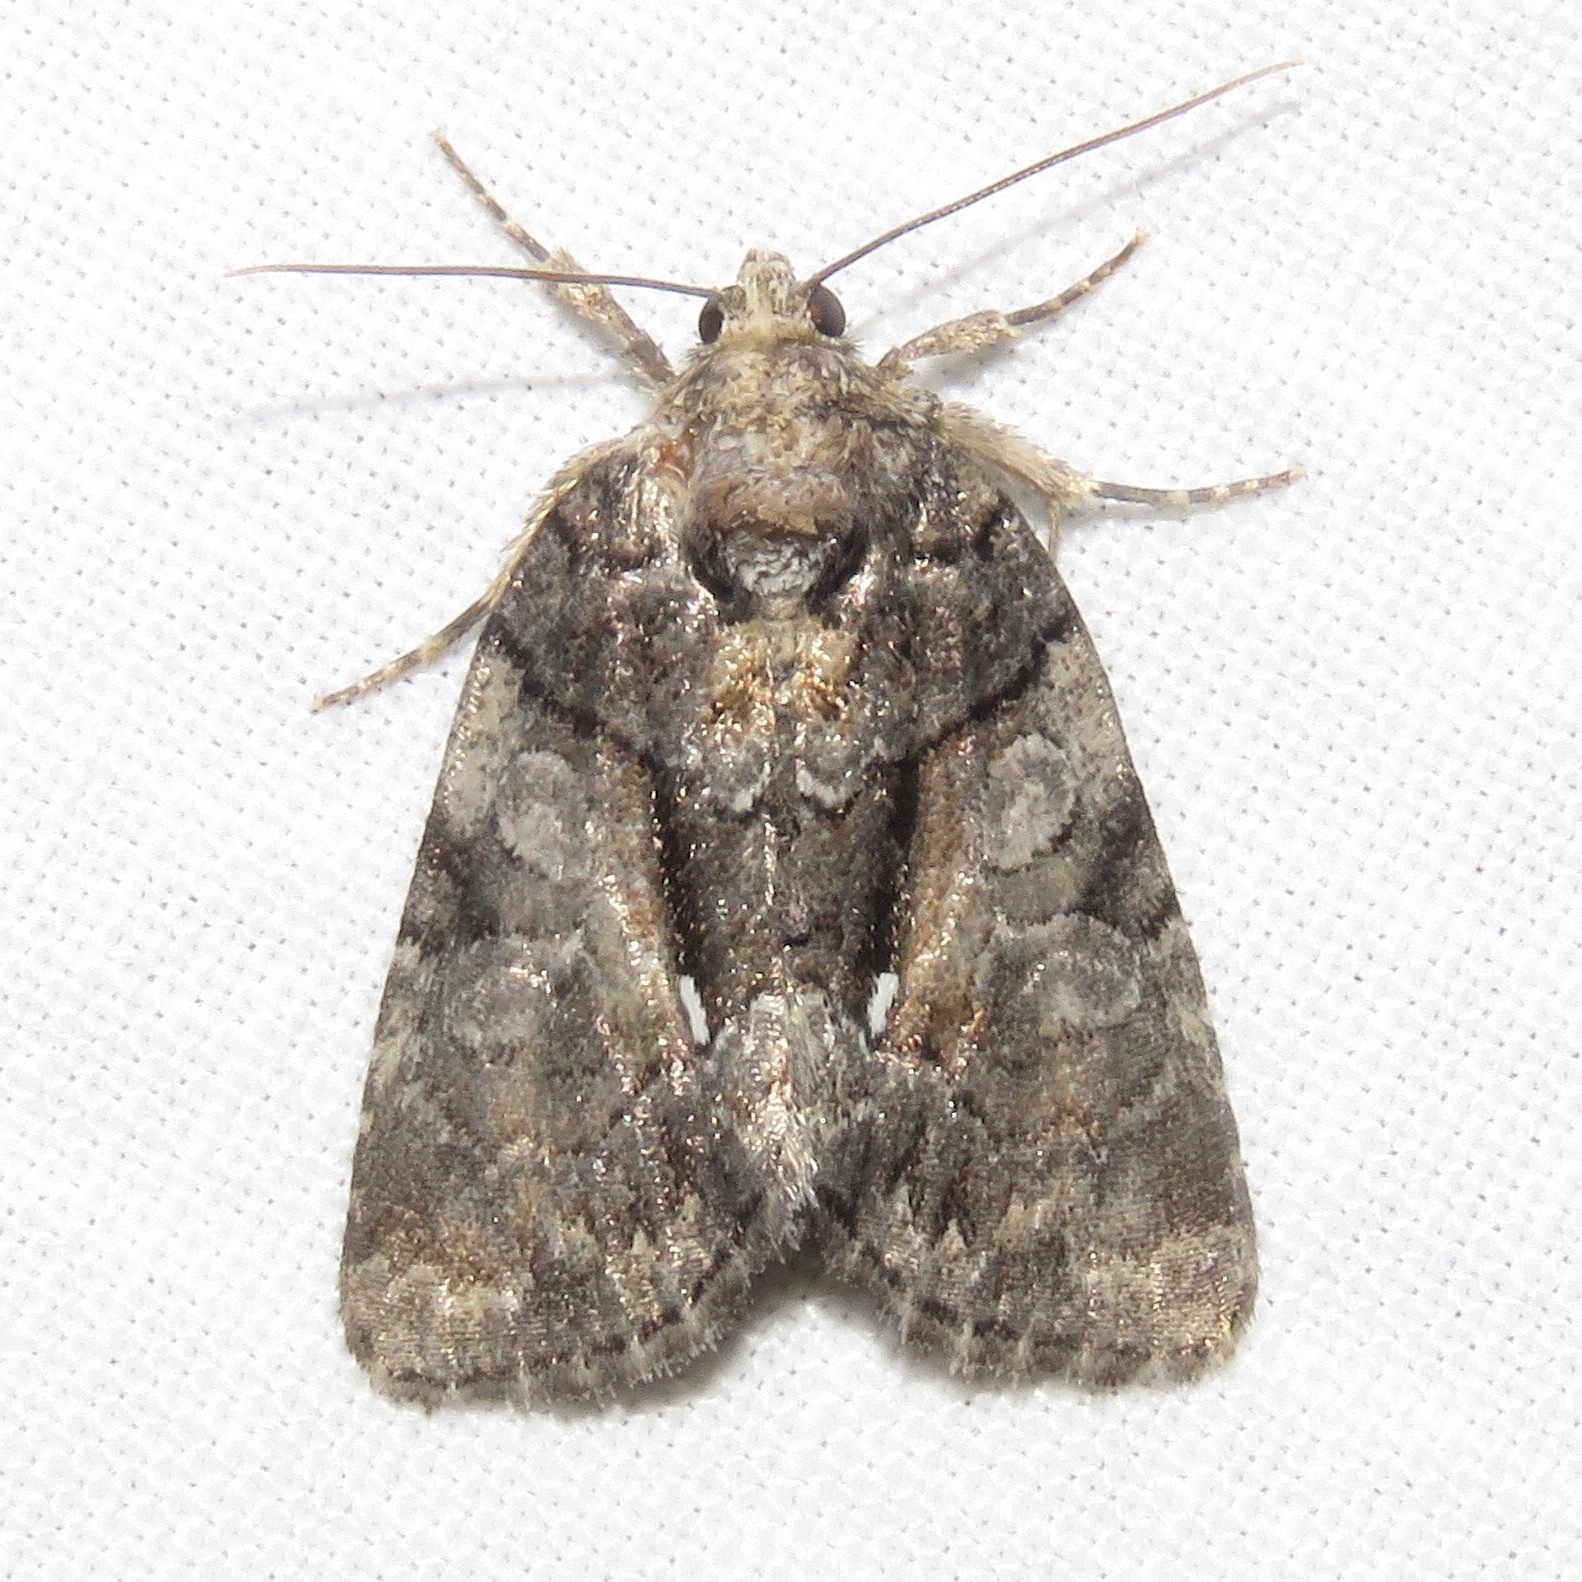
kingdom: Animalia
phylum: Arthropoda
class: Insecta
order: Lepidoptera
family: Noctuidae
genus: Chytonix
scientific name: Chytonix palliatricula
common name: Cloaked marvel
